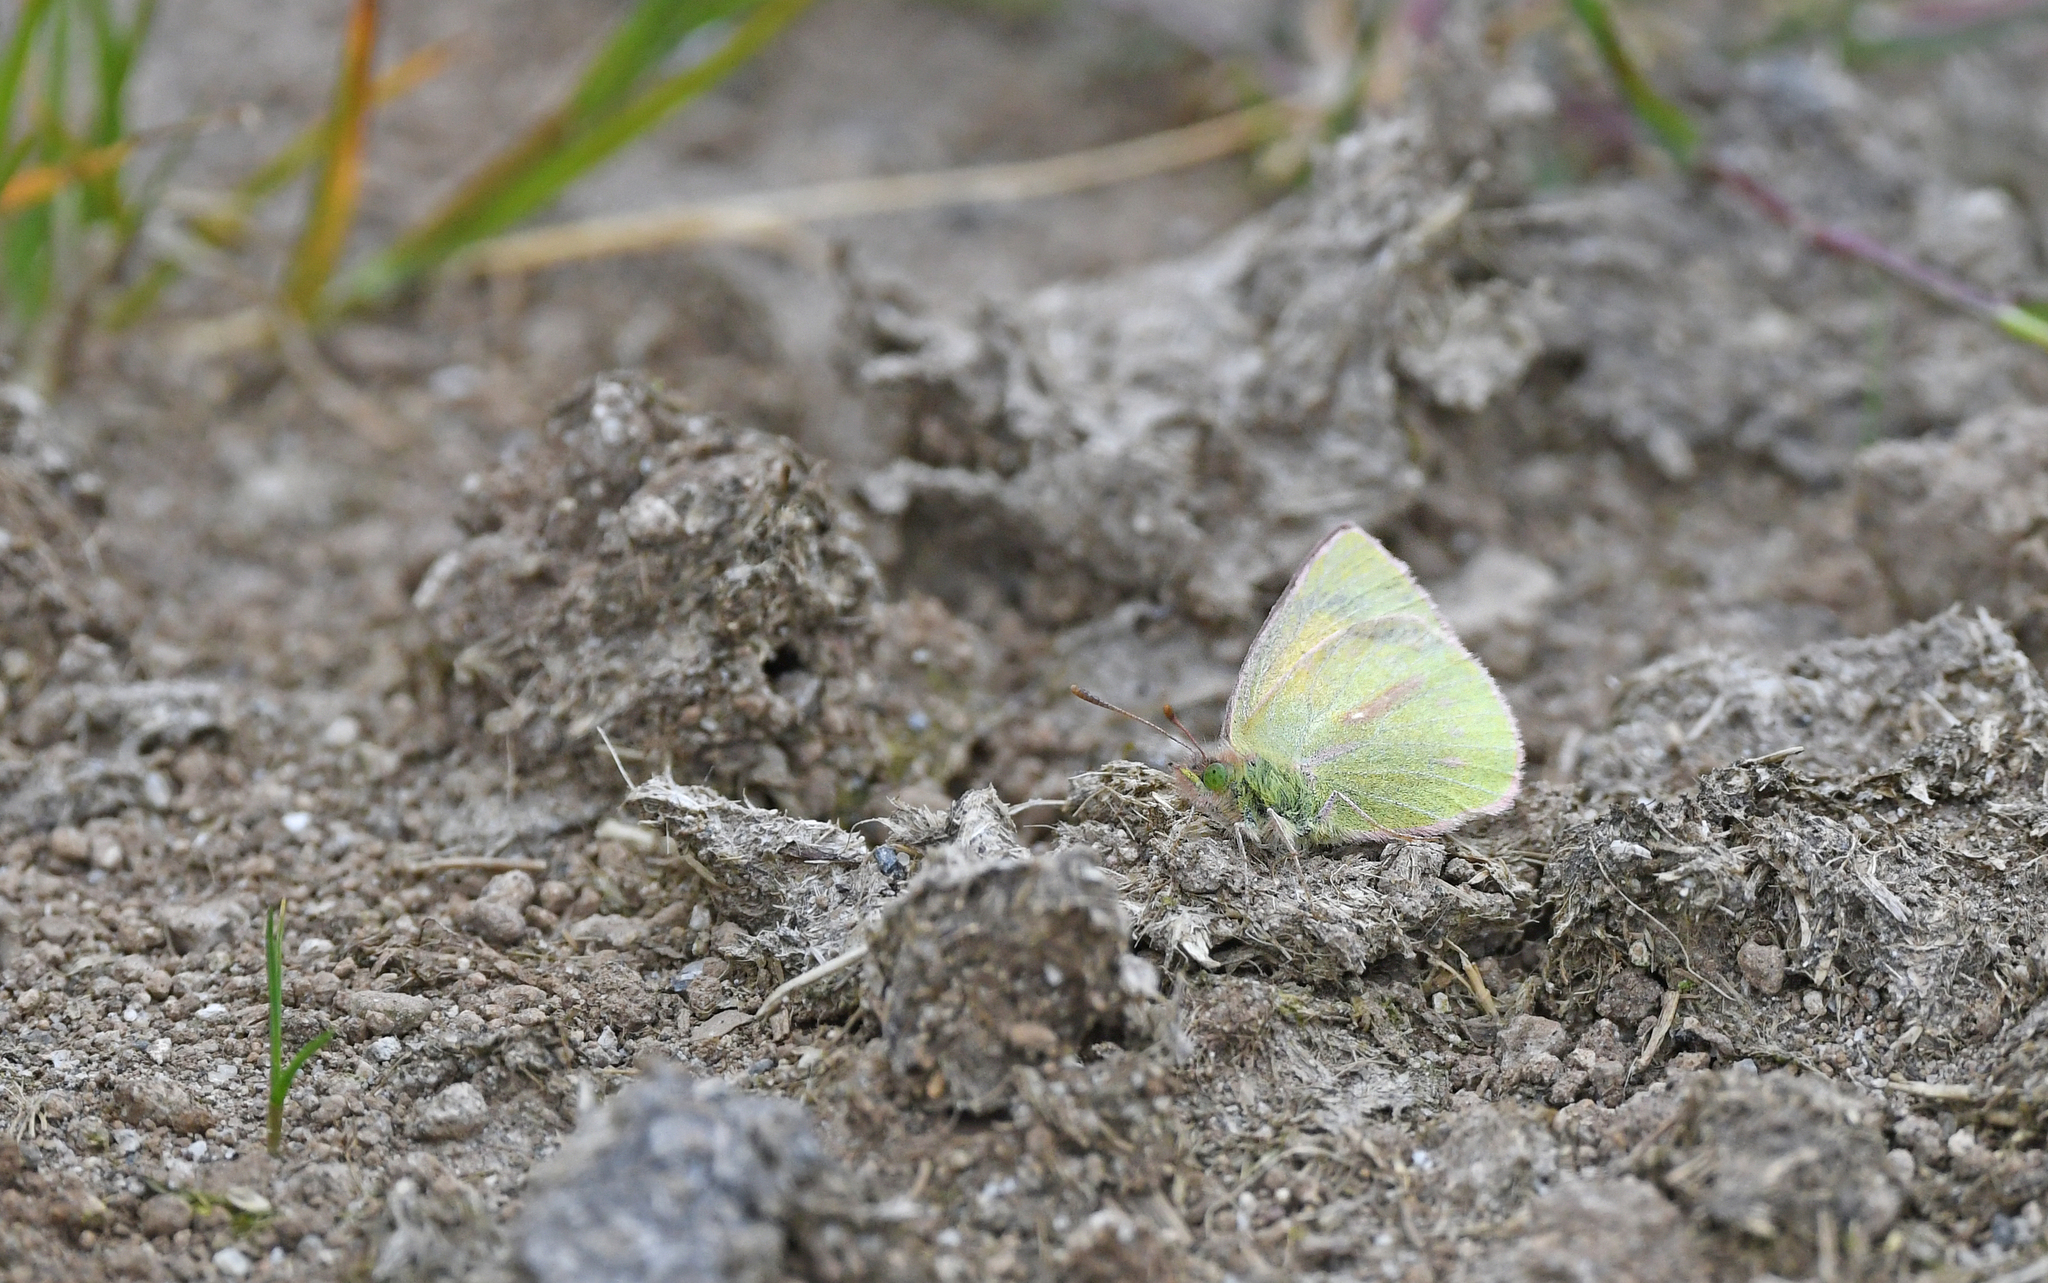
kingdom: Animalia
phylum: Arthropoda
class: Insecta
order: Lepidoptera
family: Pieridae
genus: Colias
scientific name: Colias dimera
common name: Dimera sulphur
